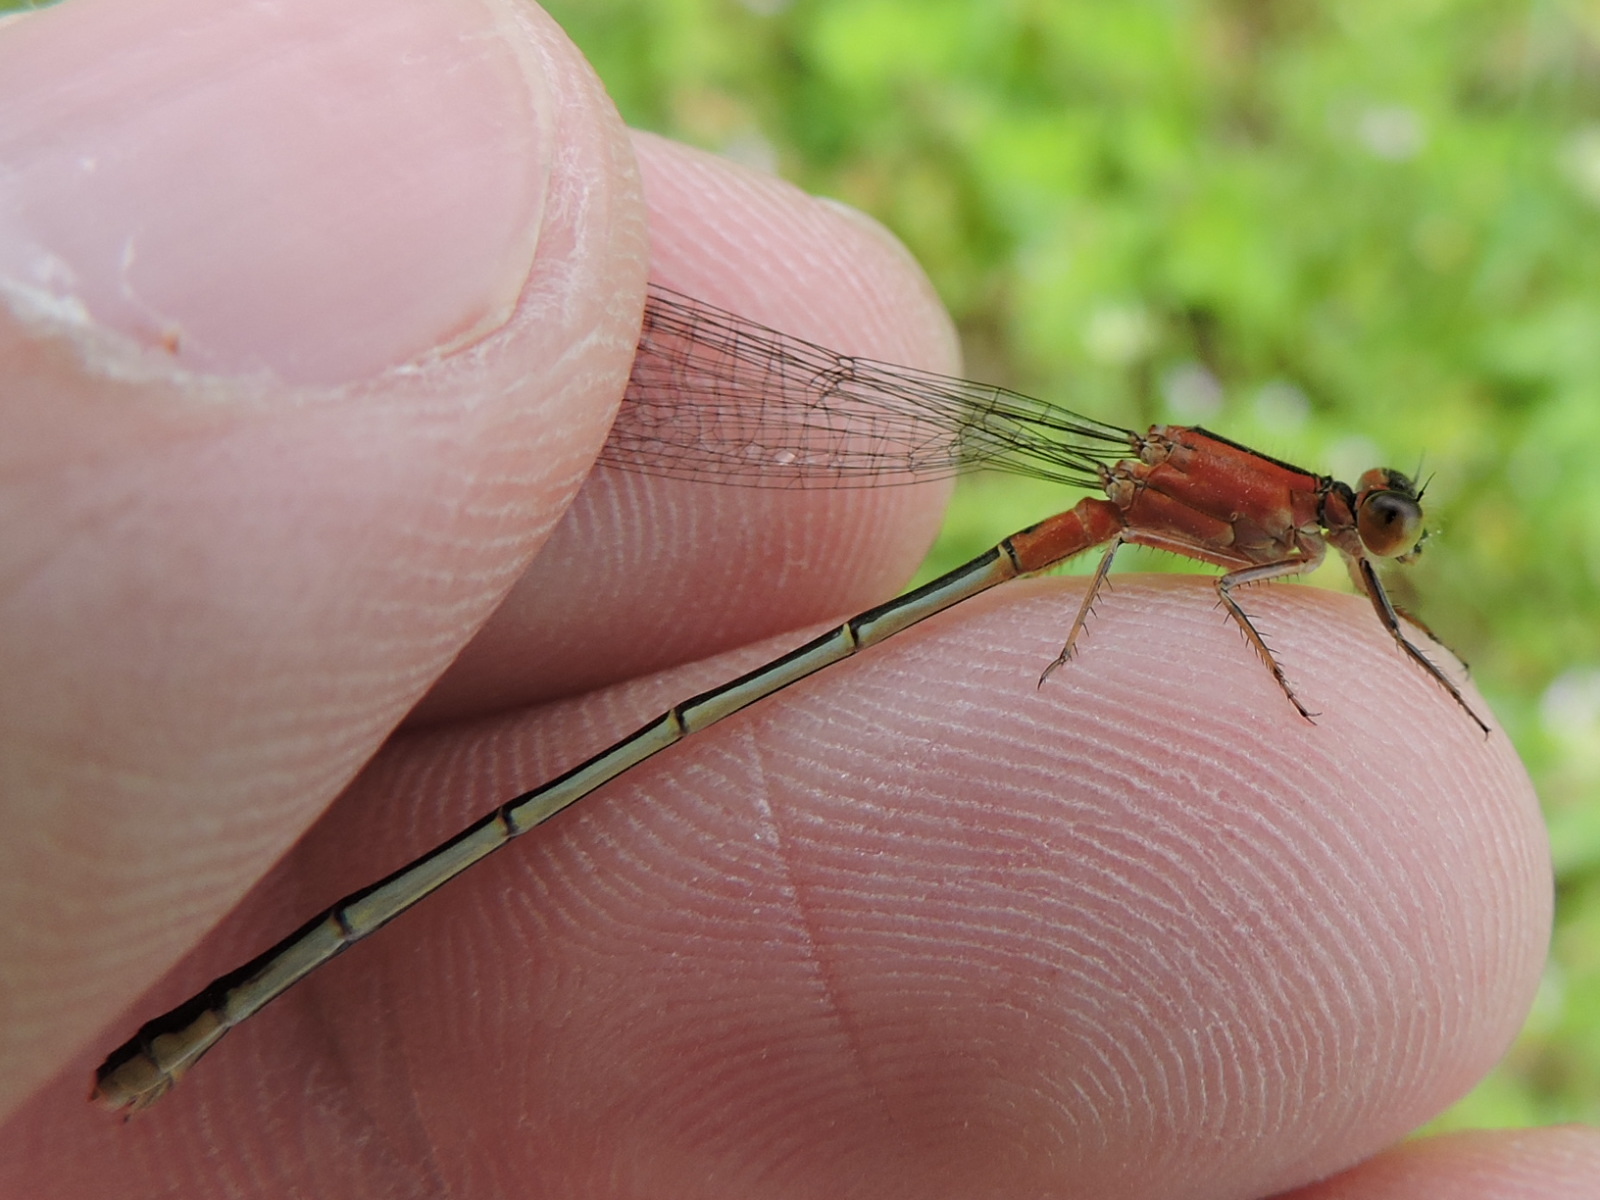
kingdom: Animalia
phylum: Arthropoda
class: Insecta
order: Odonata
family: Coenagrionidae
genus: Ischnura
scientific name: Ischnura ramburii
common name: Rambur's forktail
